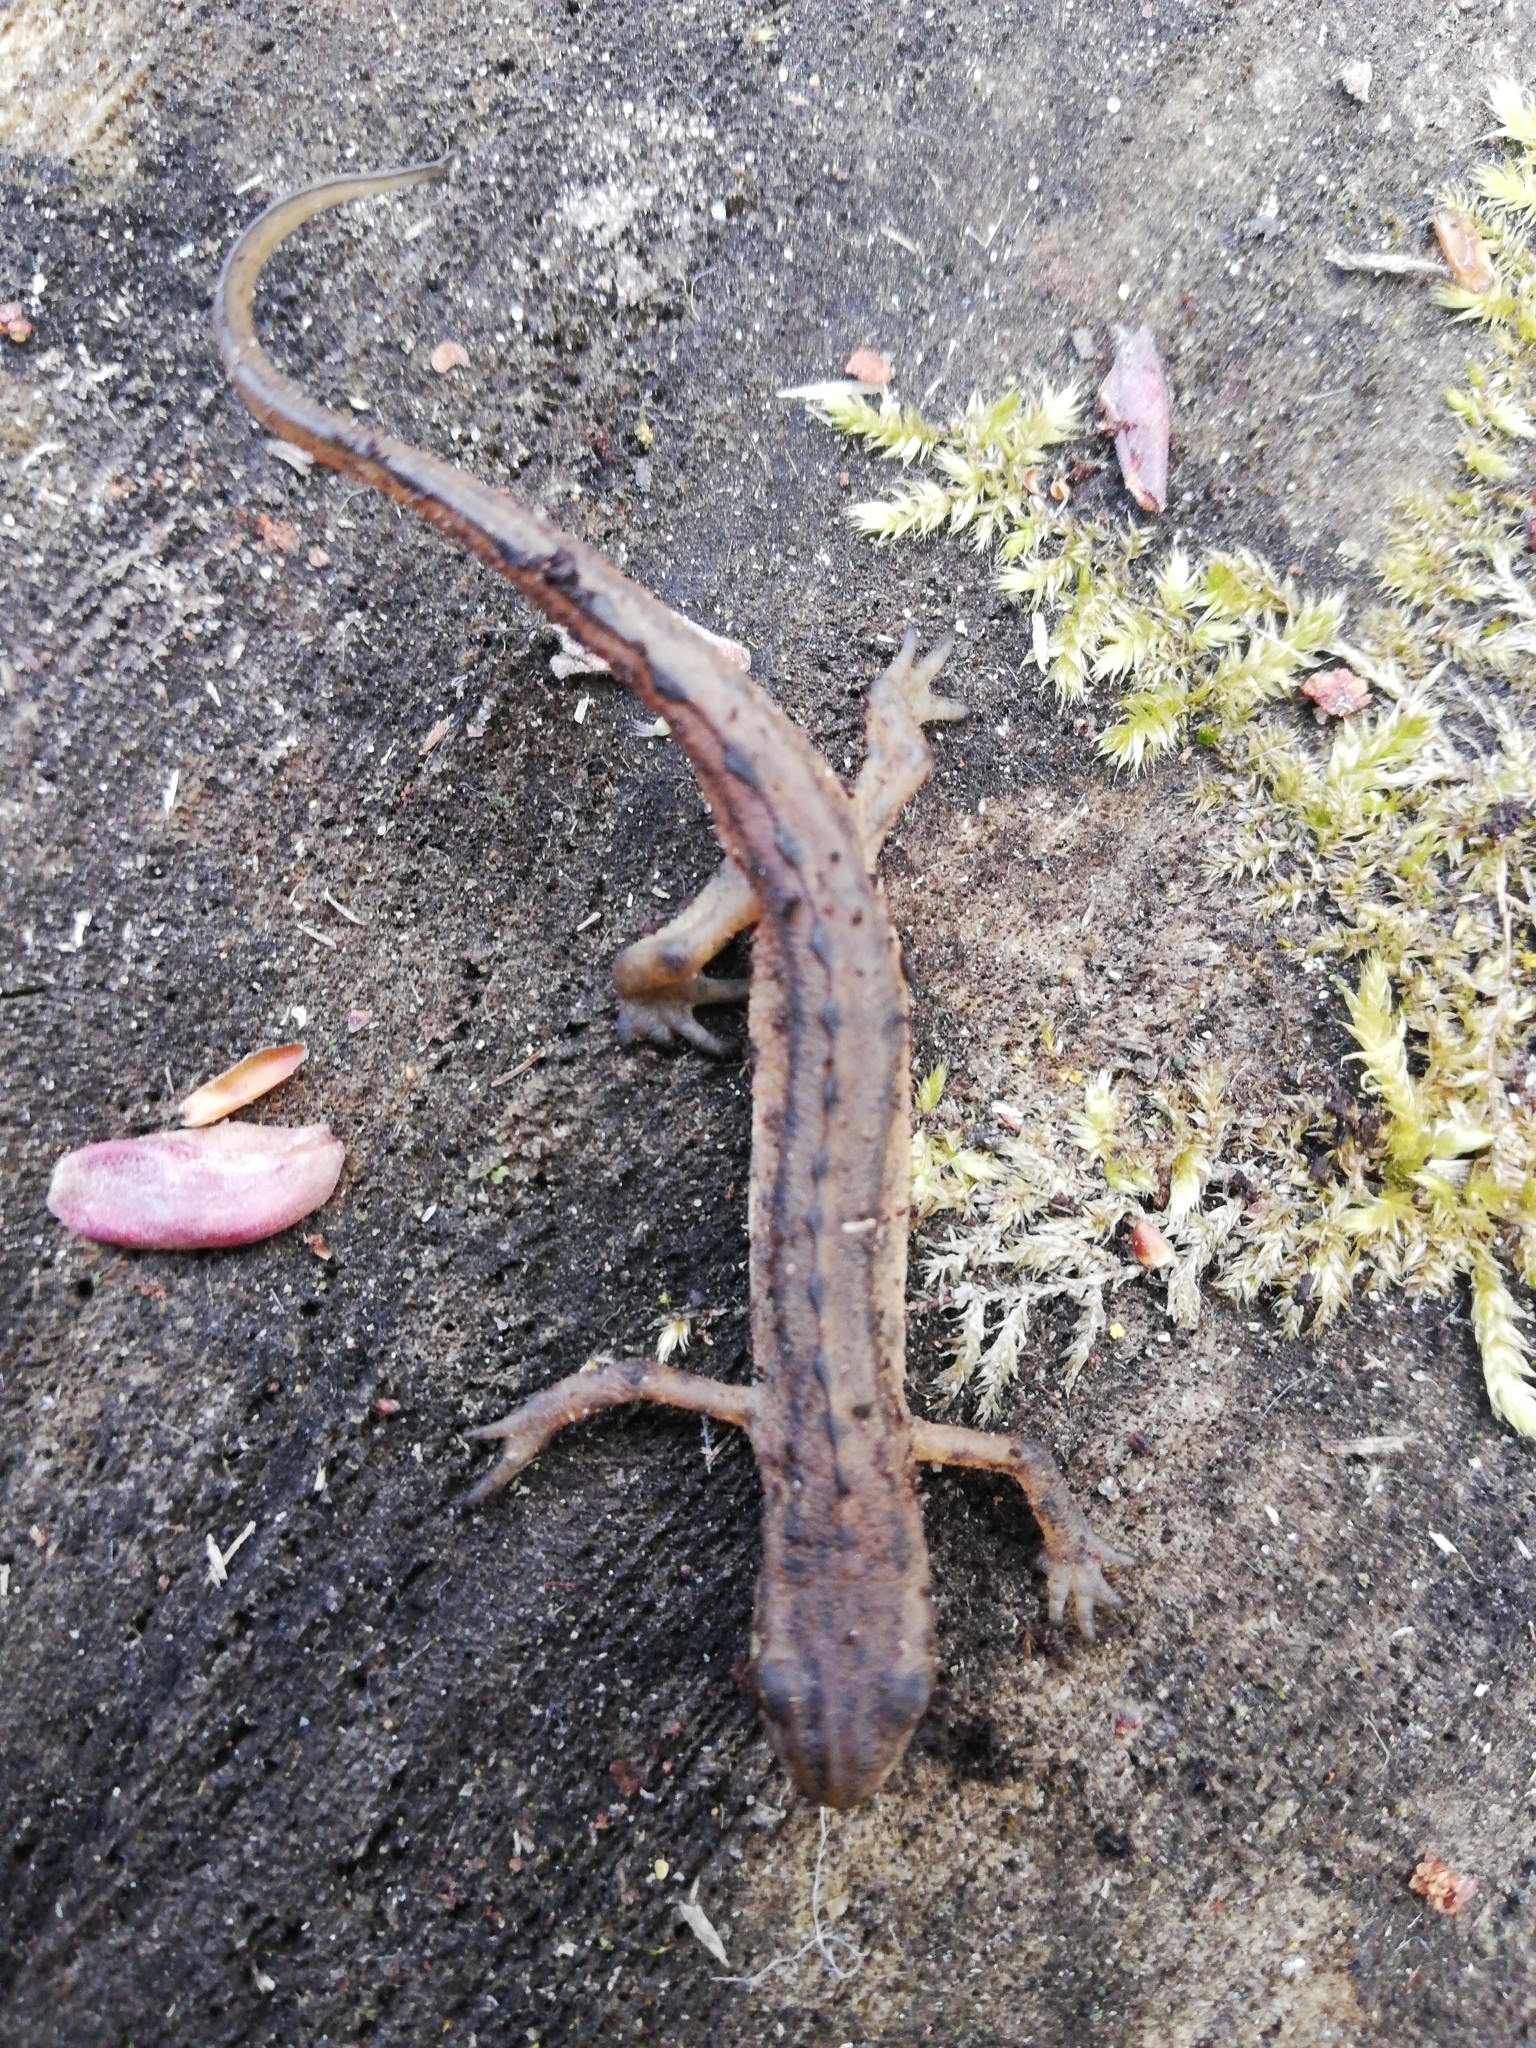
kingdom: Animalia
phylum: Chordata
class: Amphibia
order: Caudata
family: Salamandridae
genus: Lissotriton
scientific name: Lissotriton vulgaris
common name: Smooth newt
